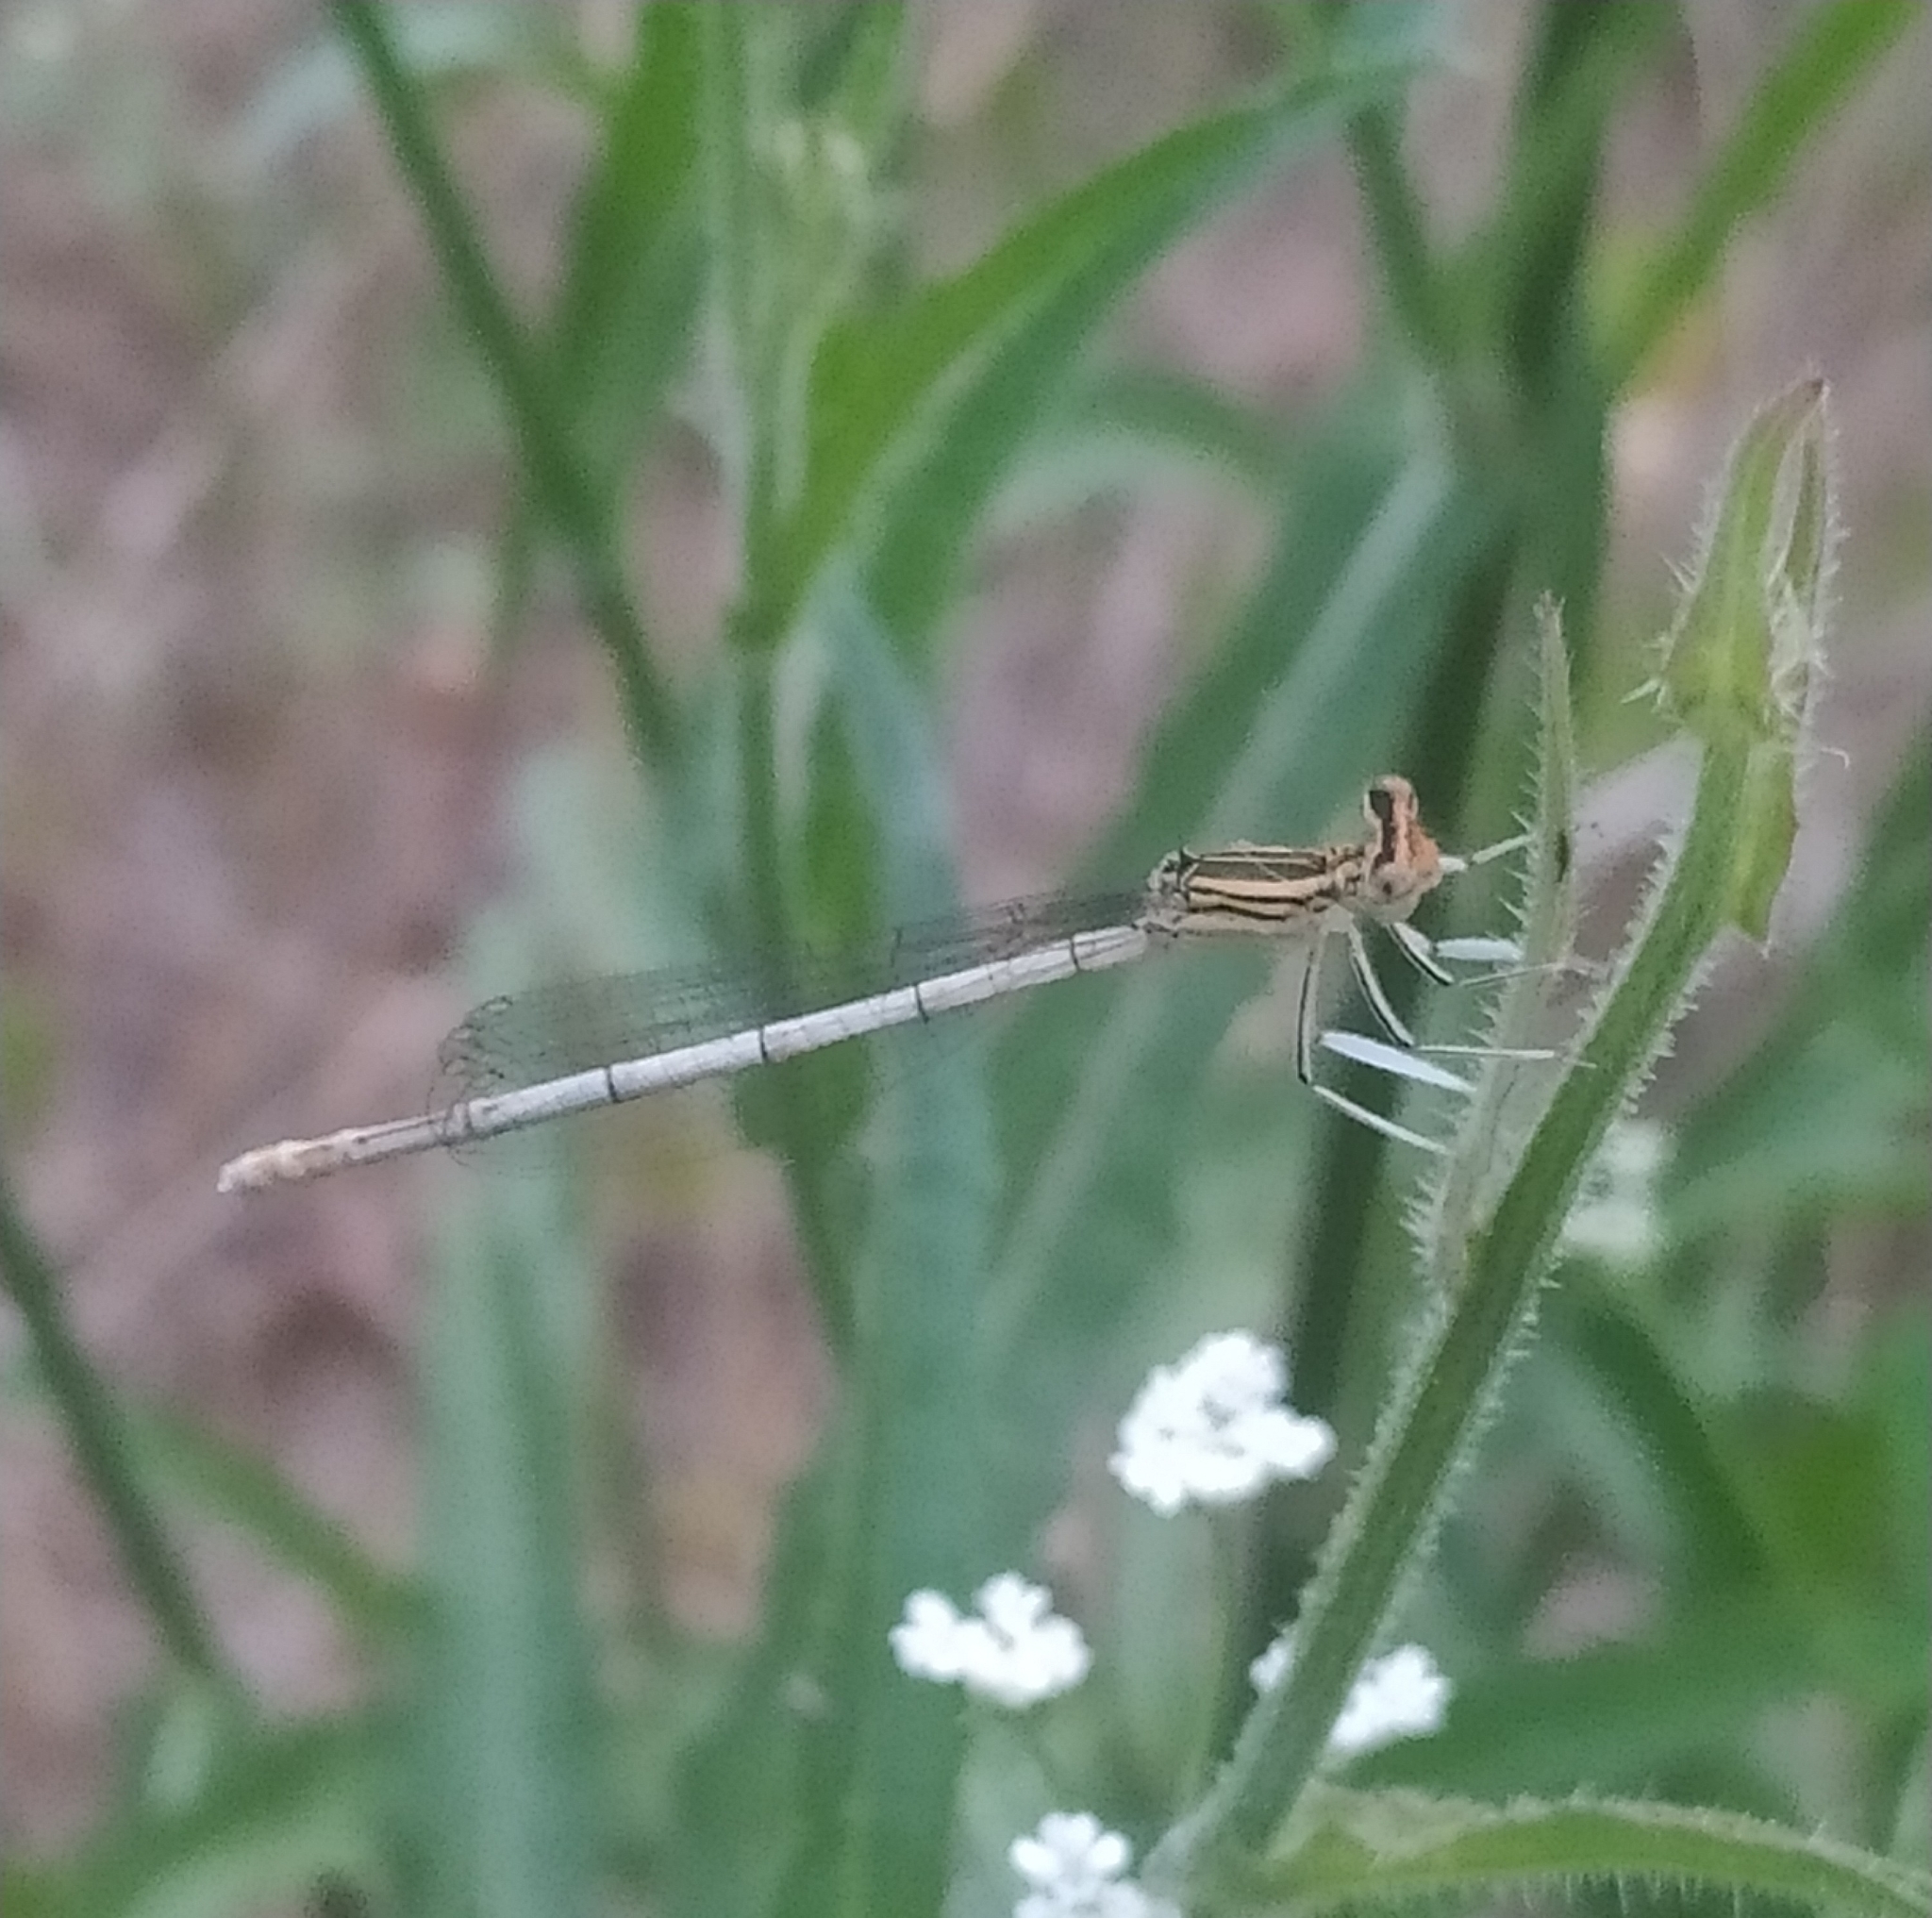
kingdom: Animalia
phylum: Arthropoda
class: Insecta
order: Odonata
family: Platycnemididae
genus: Platycnemis
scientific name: Platycnemis pennipes
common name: White-legged damselfly
